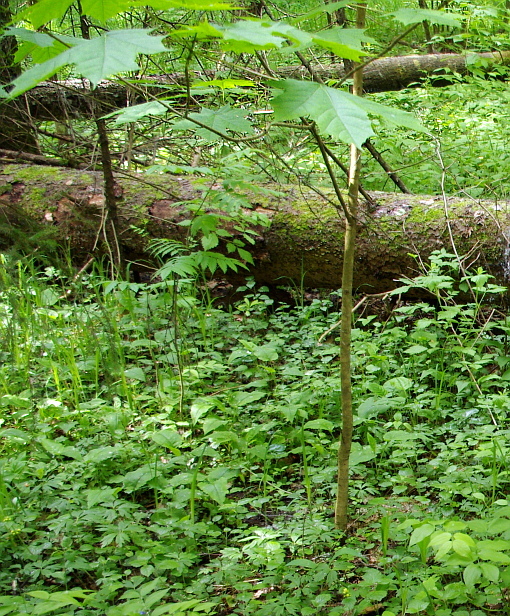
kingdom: Plantae
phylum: Tracheophyta
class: Magnoliopsida
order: Sapindales
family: Sapindaceae
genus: Acer
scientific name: Acer platanoides
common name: Norway maple
